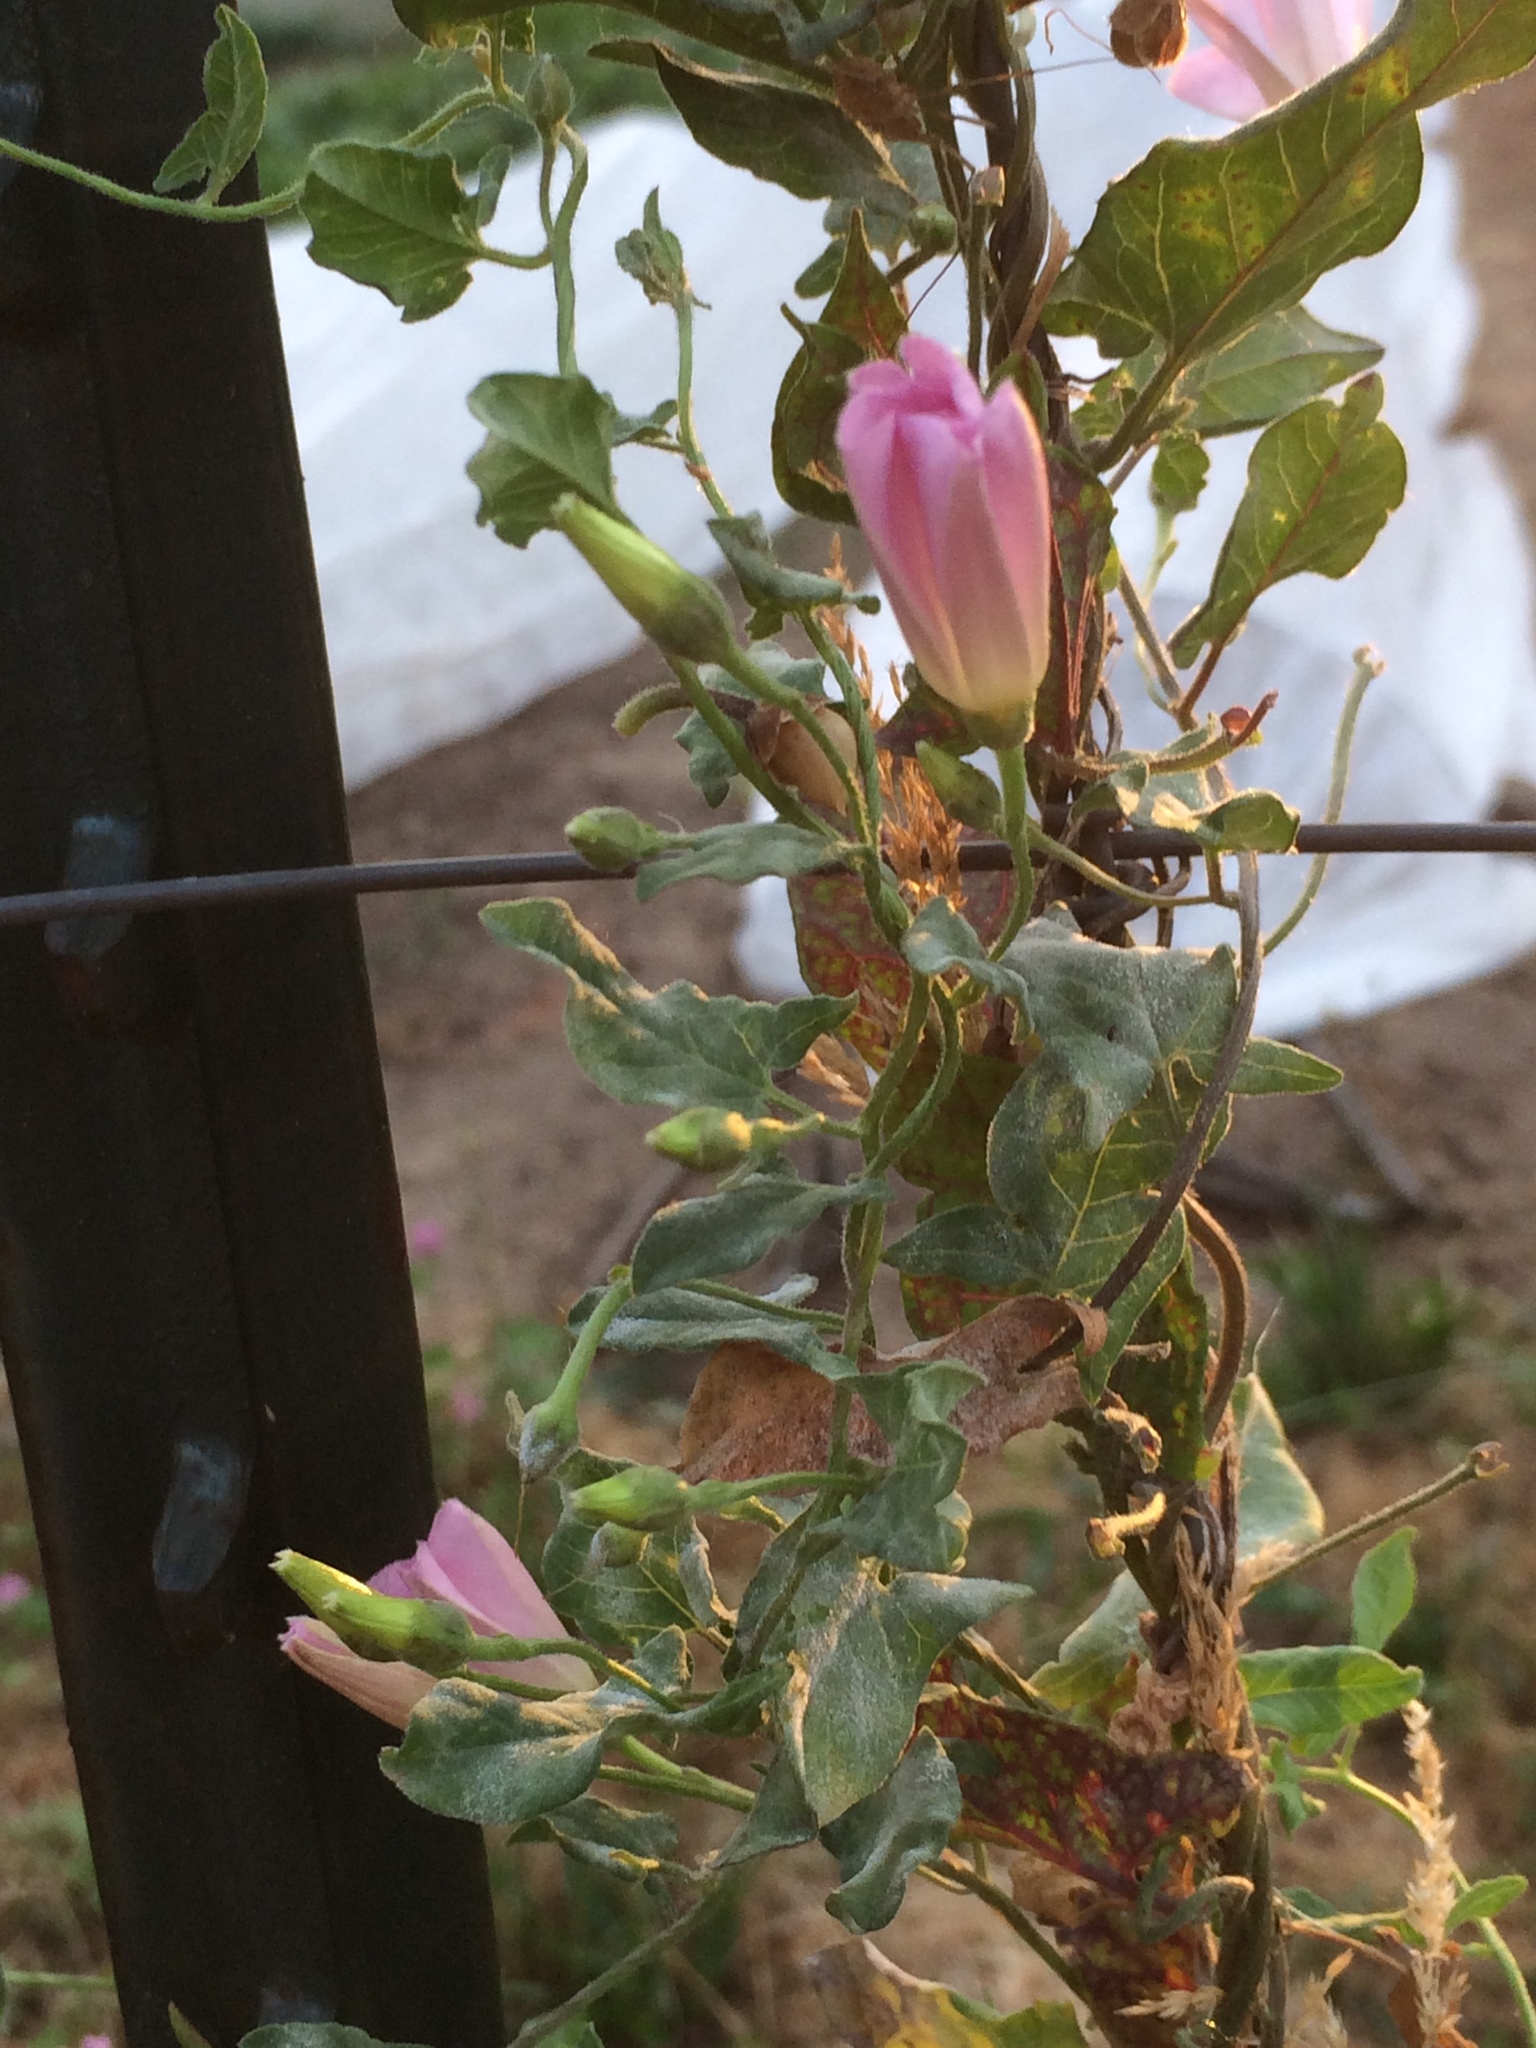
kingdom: Plantae
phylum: Tracheophyta
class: Magnoliopsida
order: Solanales
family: Convolvulaceae
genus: Convolvulus
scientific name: Convolvulus arvensis
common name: Field bindweed
